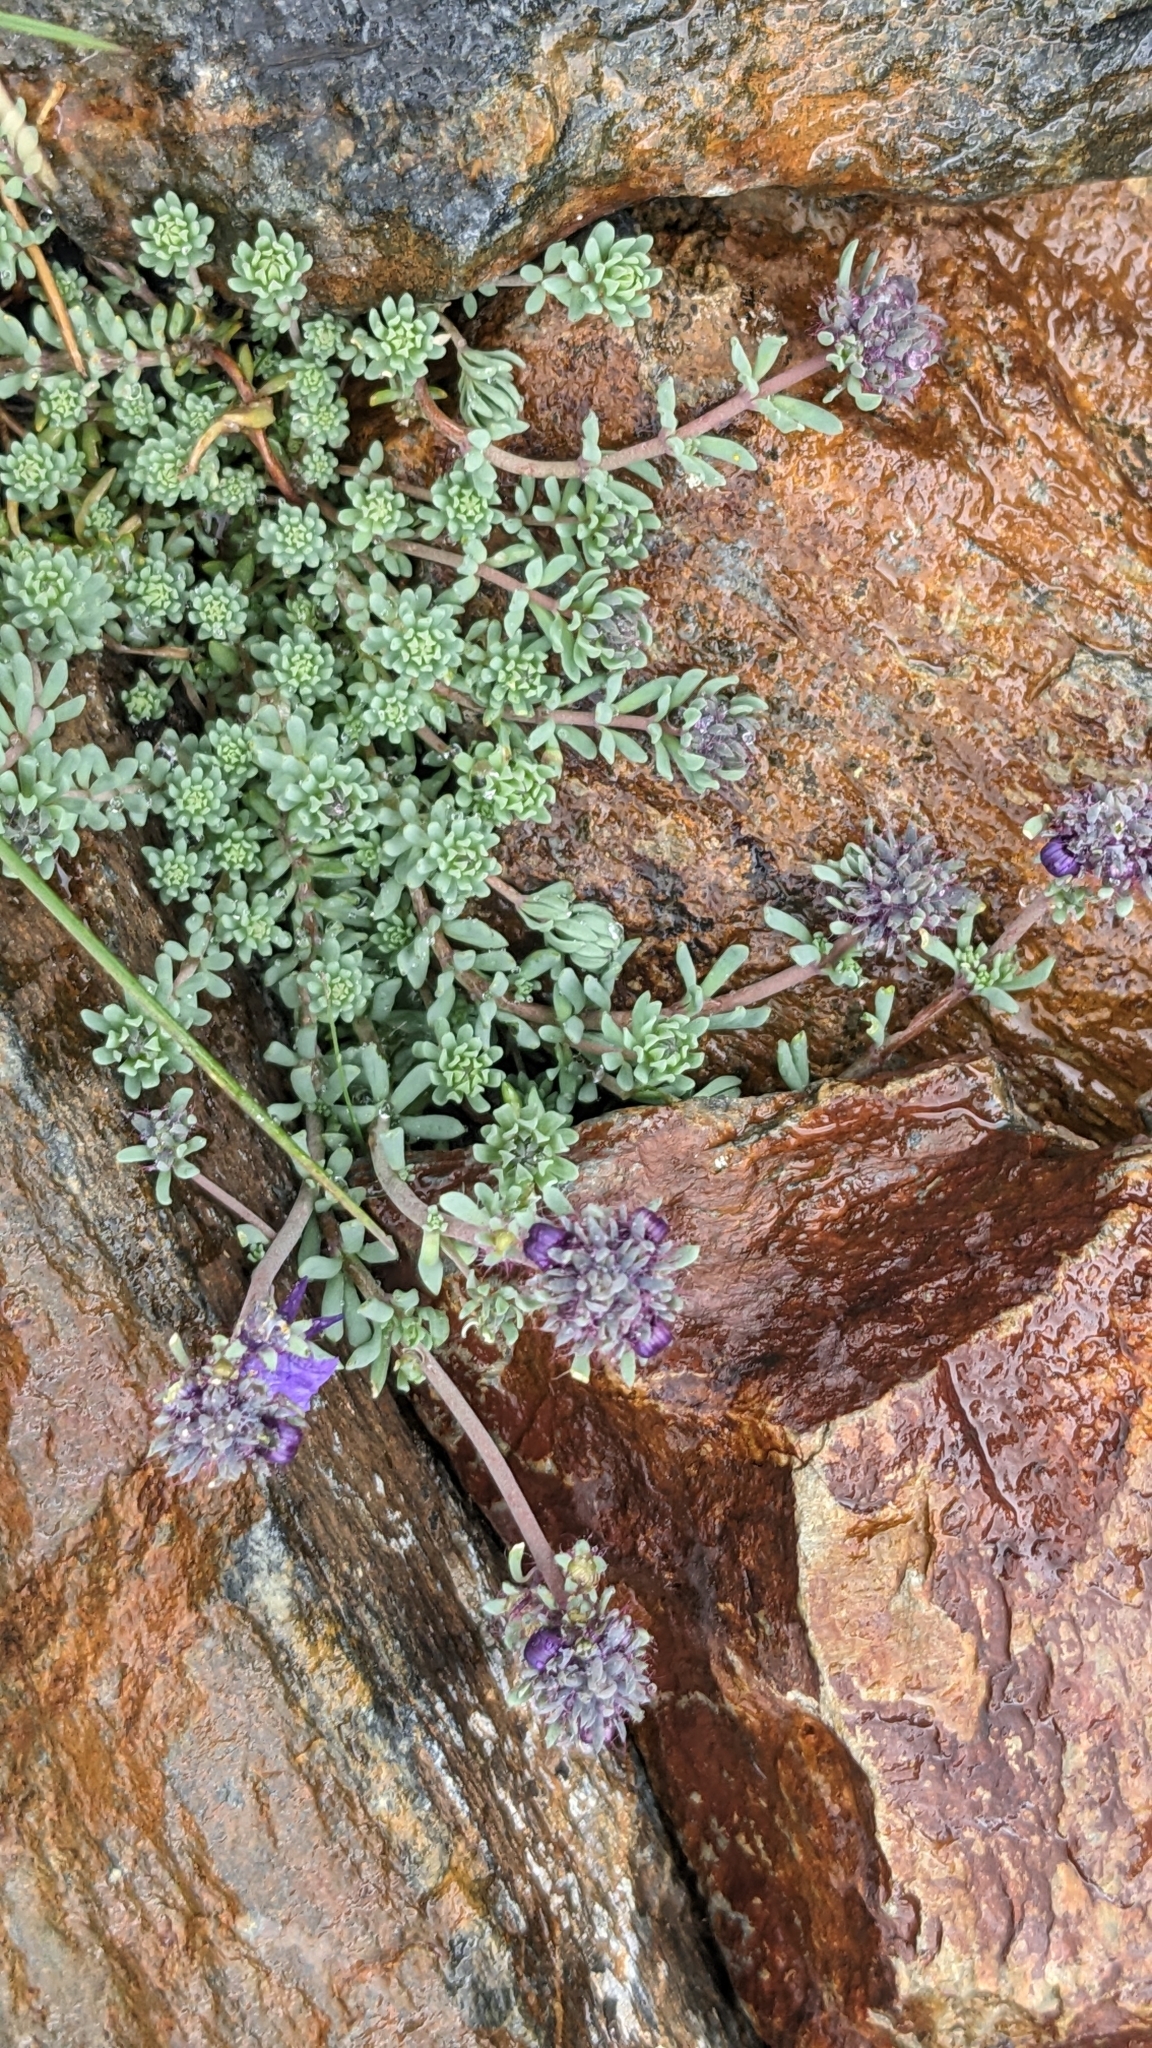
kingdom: Plantae
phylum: Tracheophyta
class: Magnoliopsida
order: Lamiales
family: Plantaginaceae
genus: Linaria
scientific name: Linaria alpina
